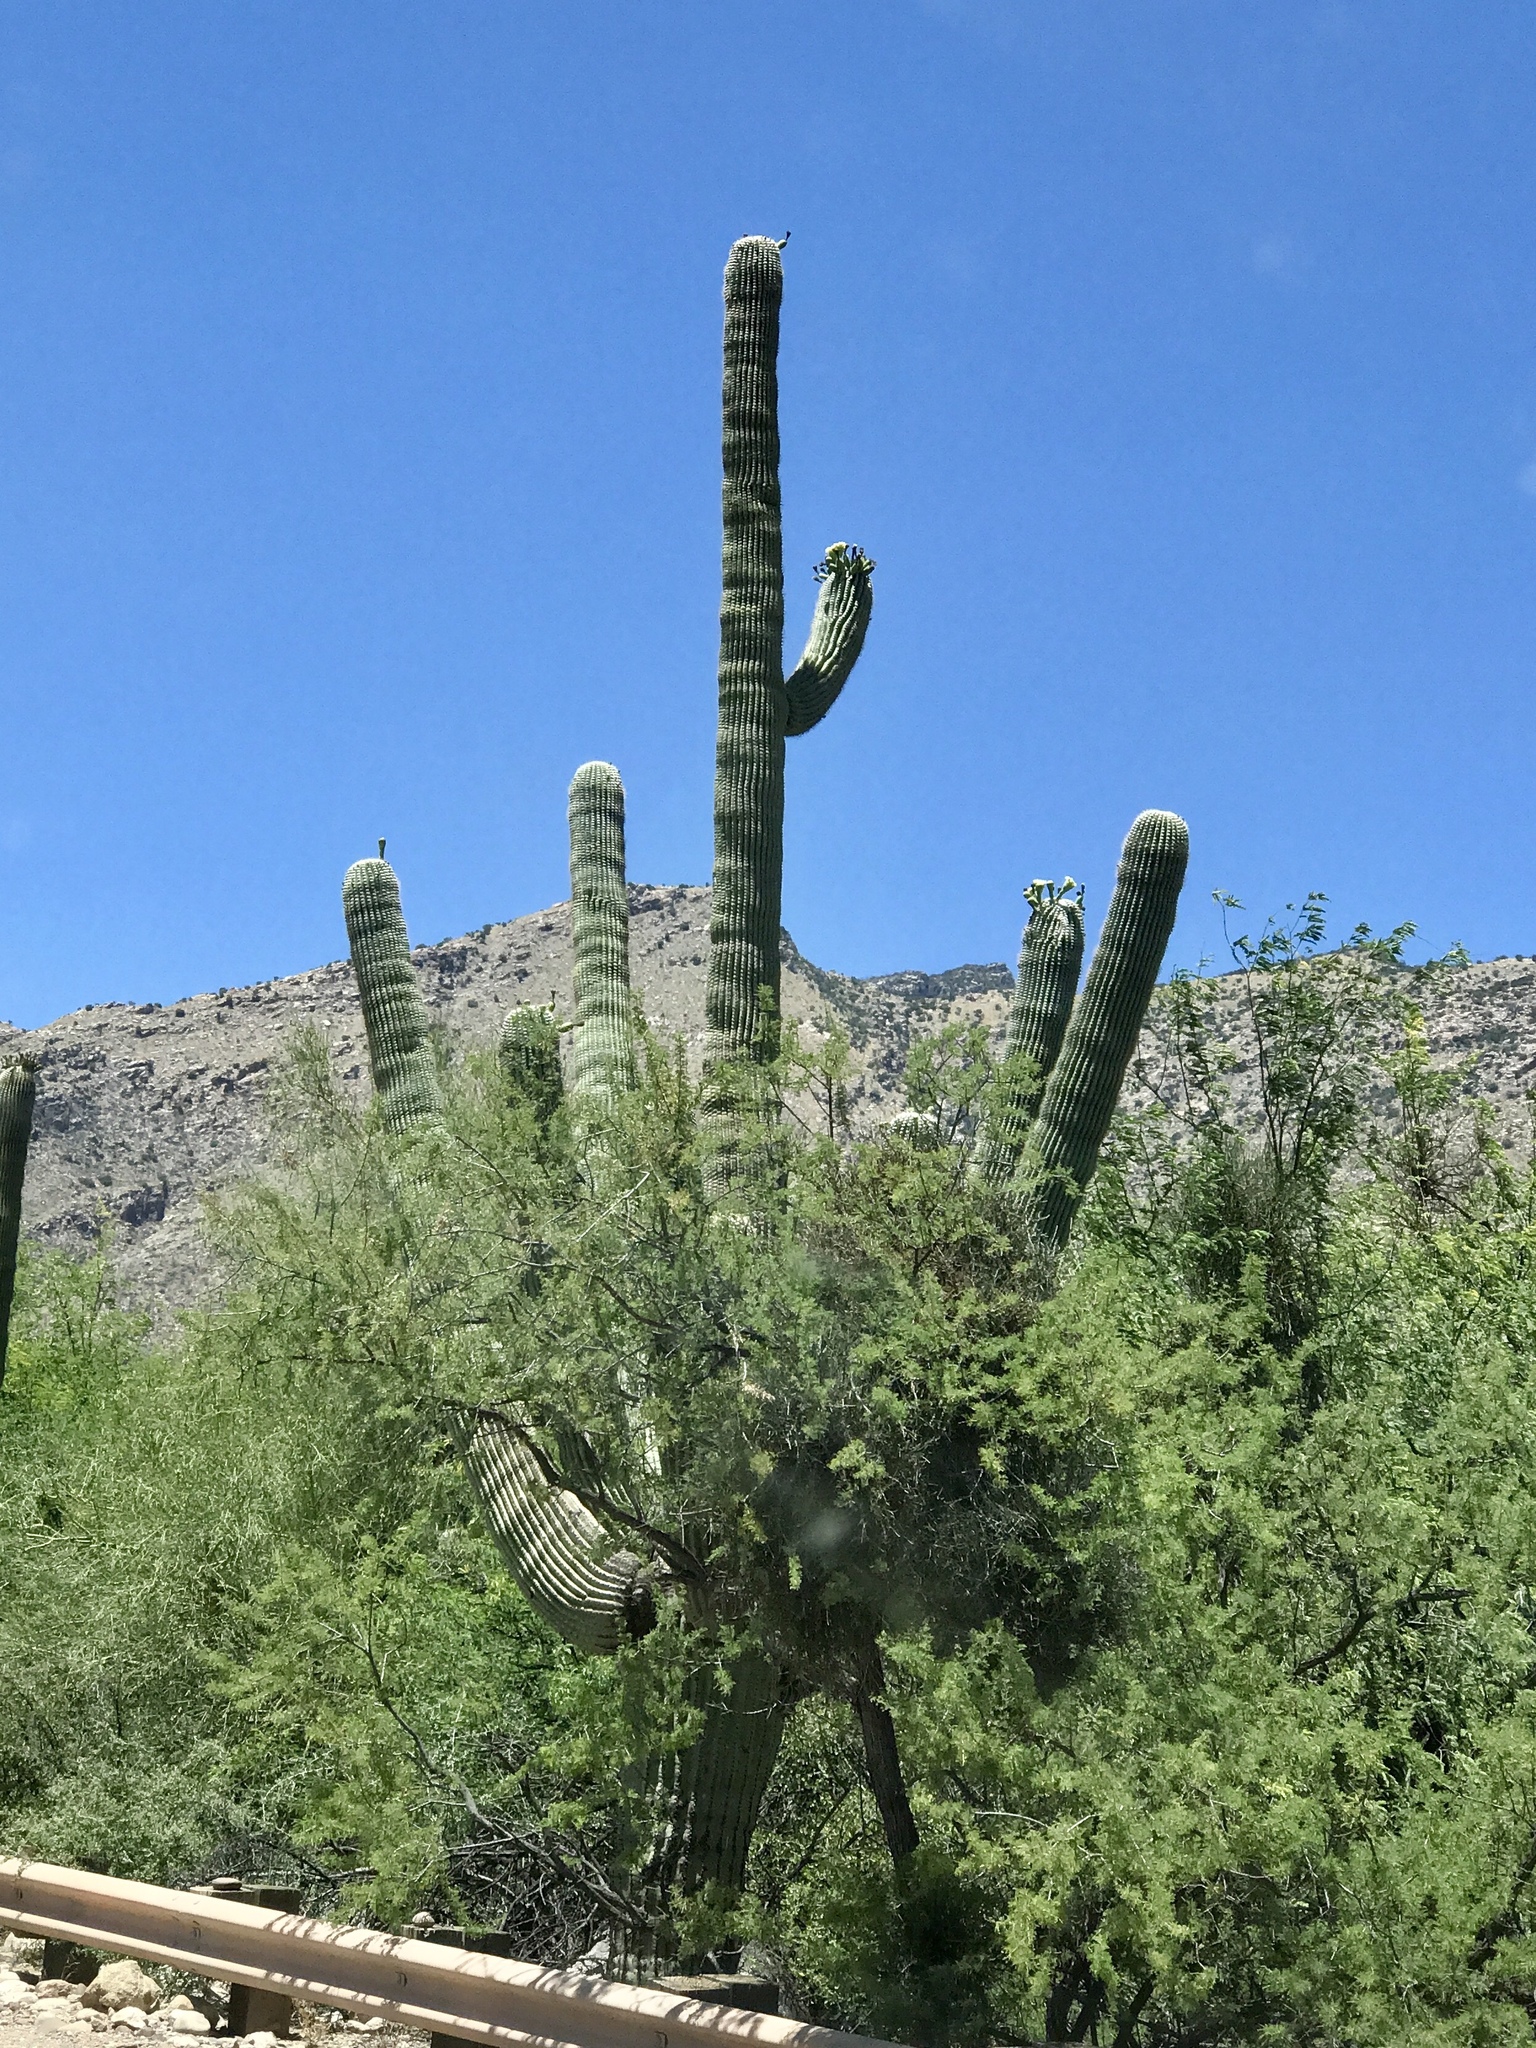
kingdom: Plantae
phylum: Tracheophyta
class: Magnoliopsida
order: Caryophyllales
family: Cactaceae
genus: Carnegiea
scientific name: Carnegiea gigantea
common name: Saguaro
